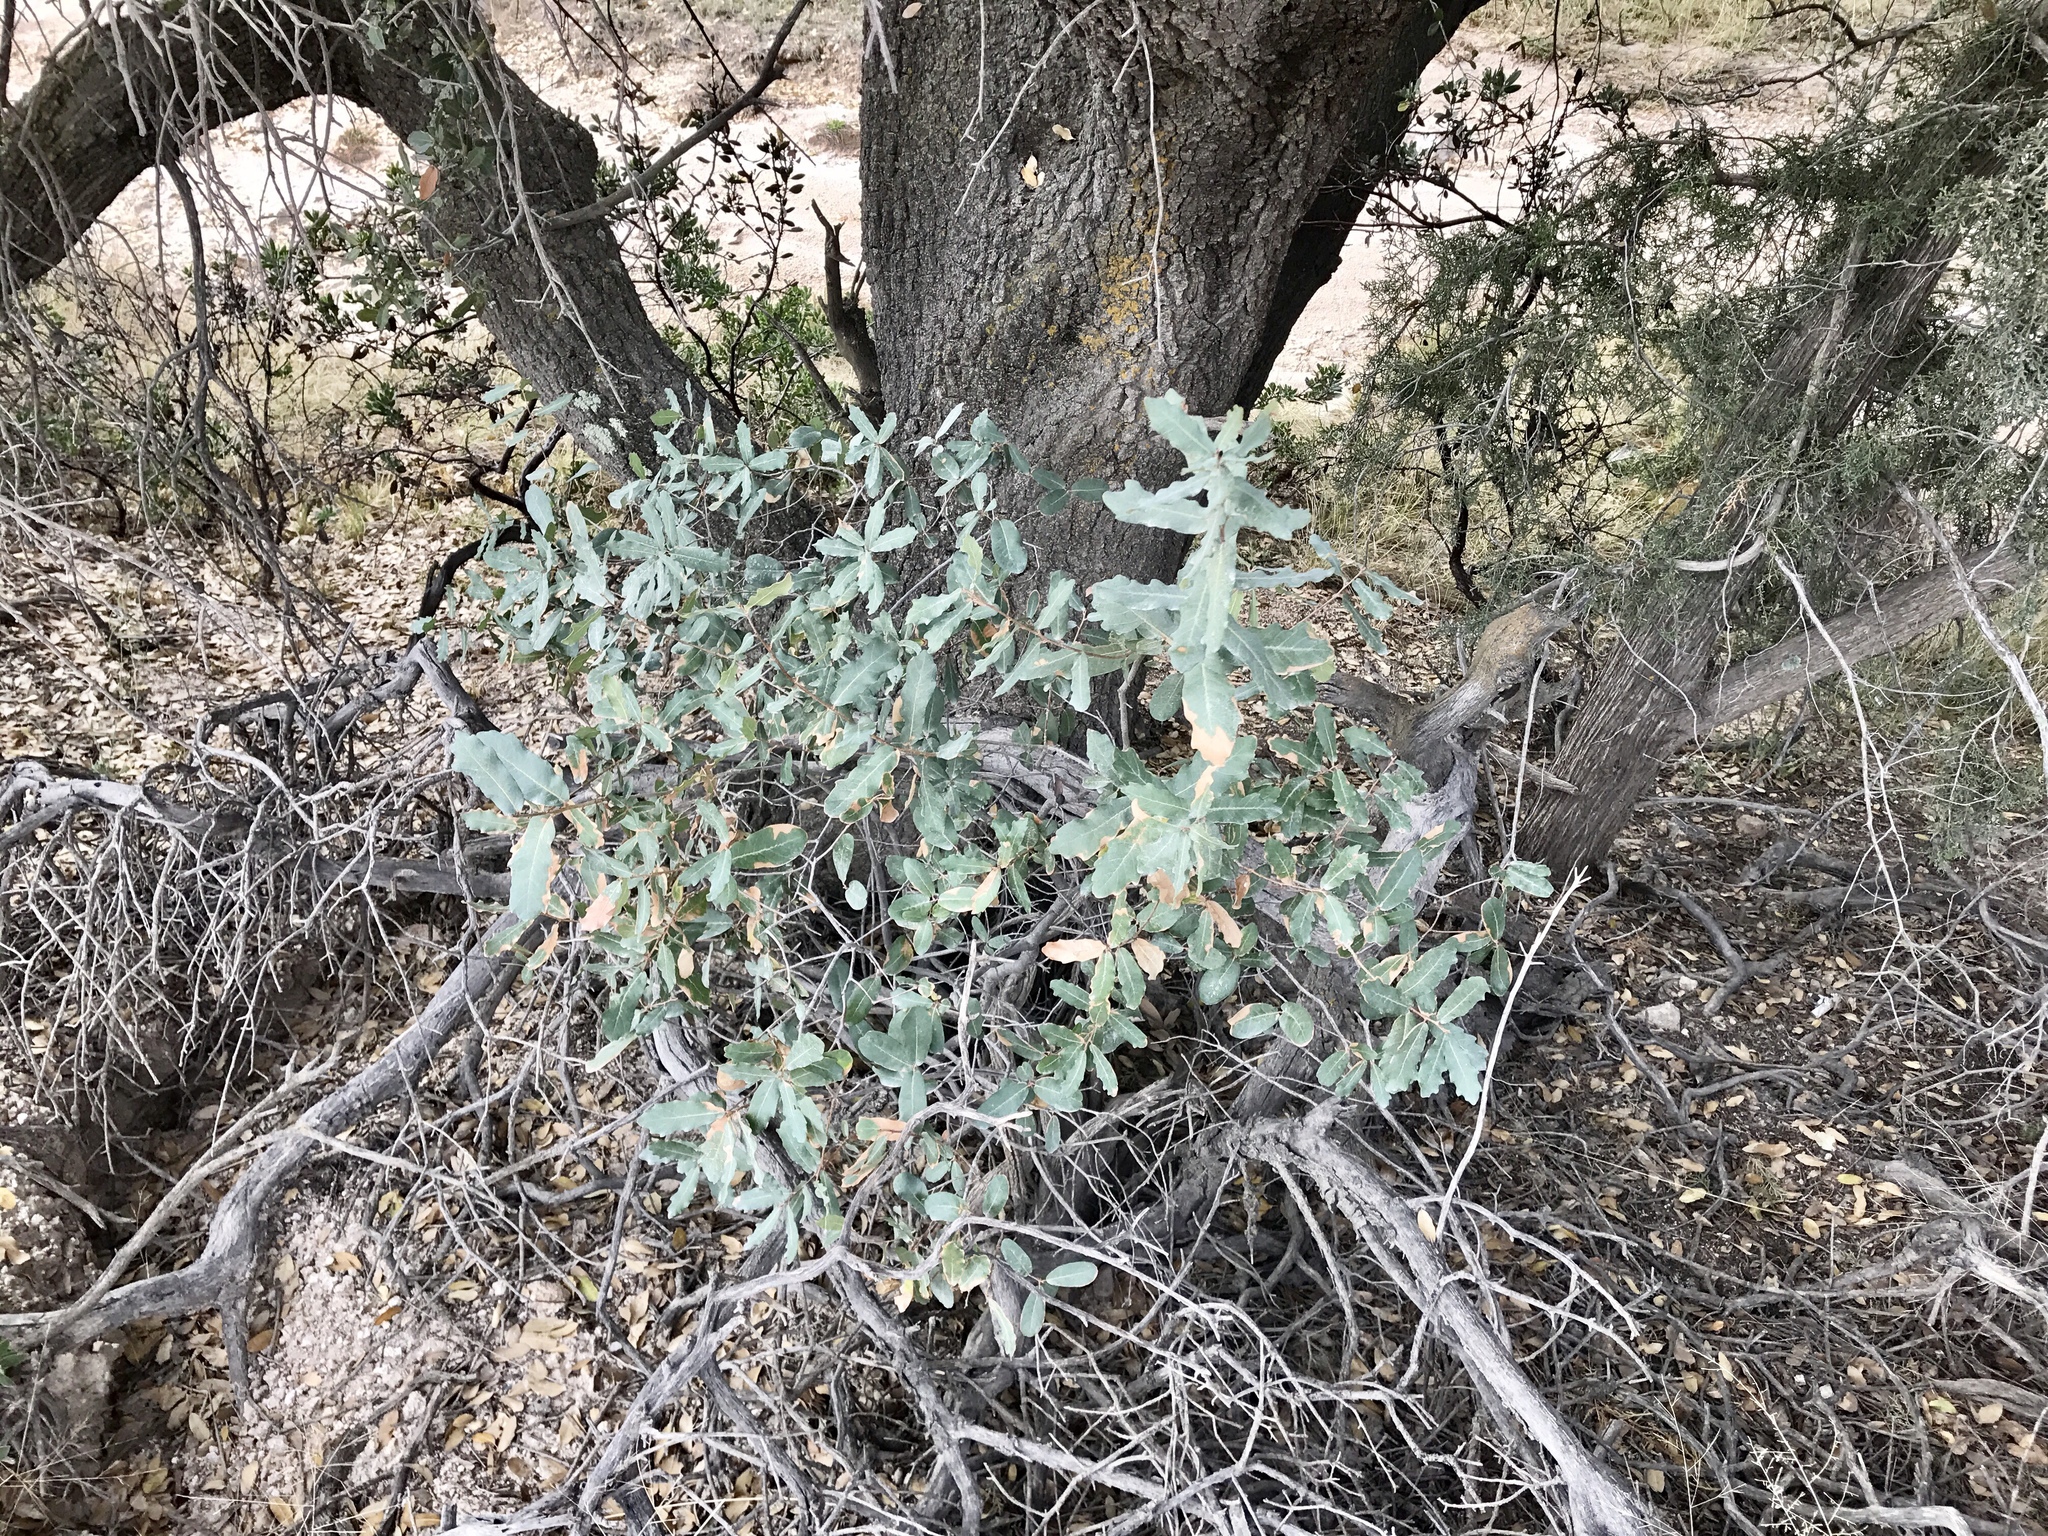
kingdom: Plantae
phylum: Tracheophyta
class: Magnoliopsida
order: Fagales
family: Fagaceae
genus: Quercus
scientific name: Quercus grisea
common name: Gray oak
